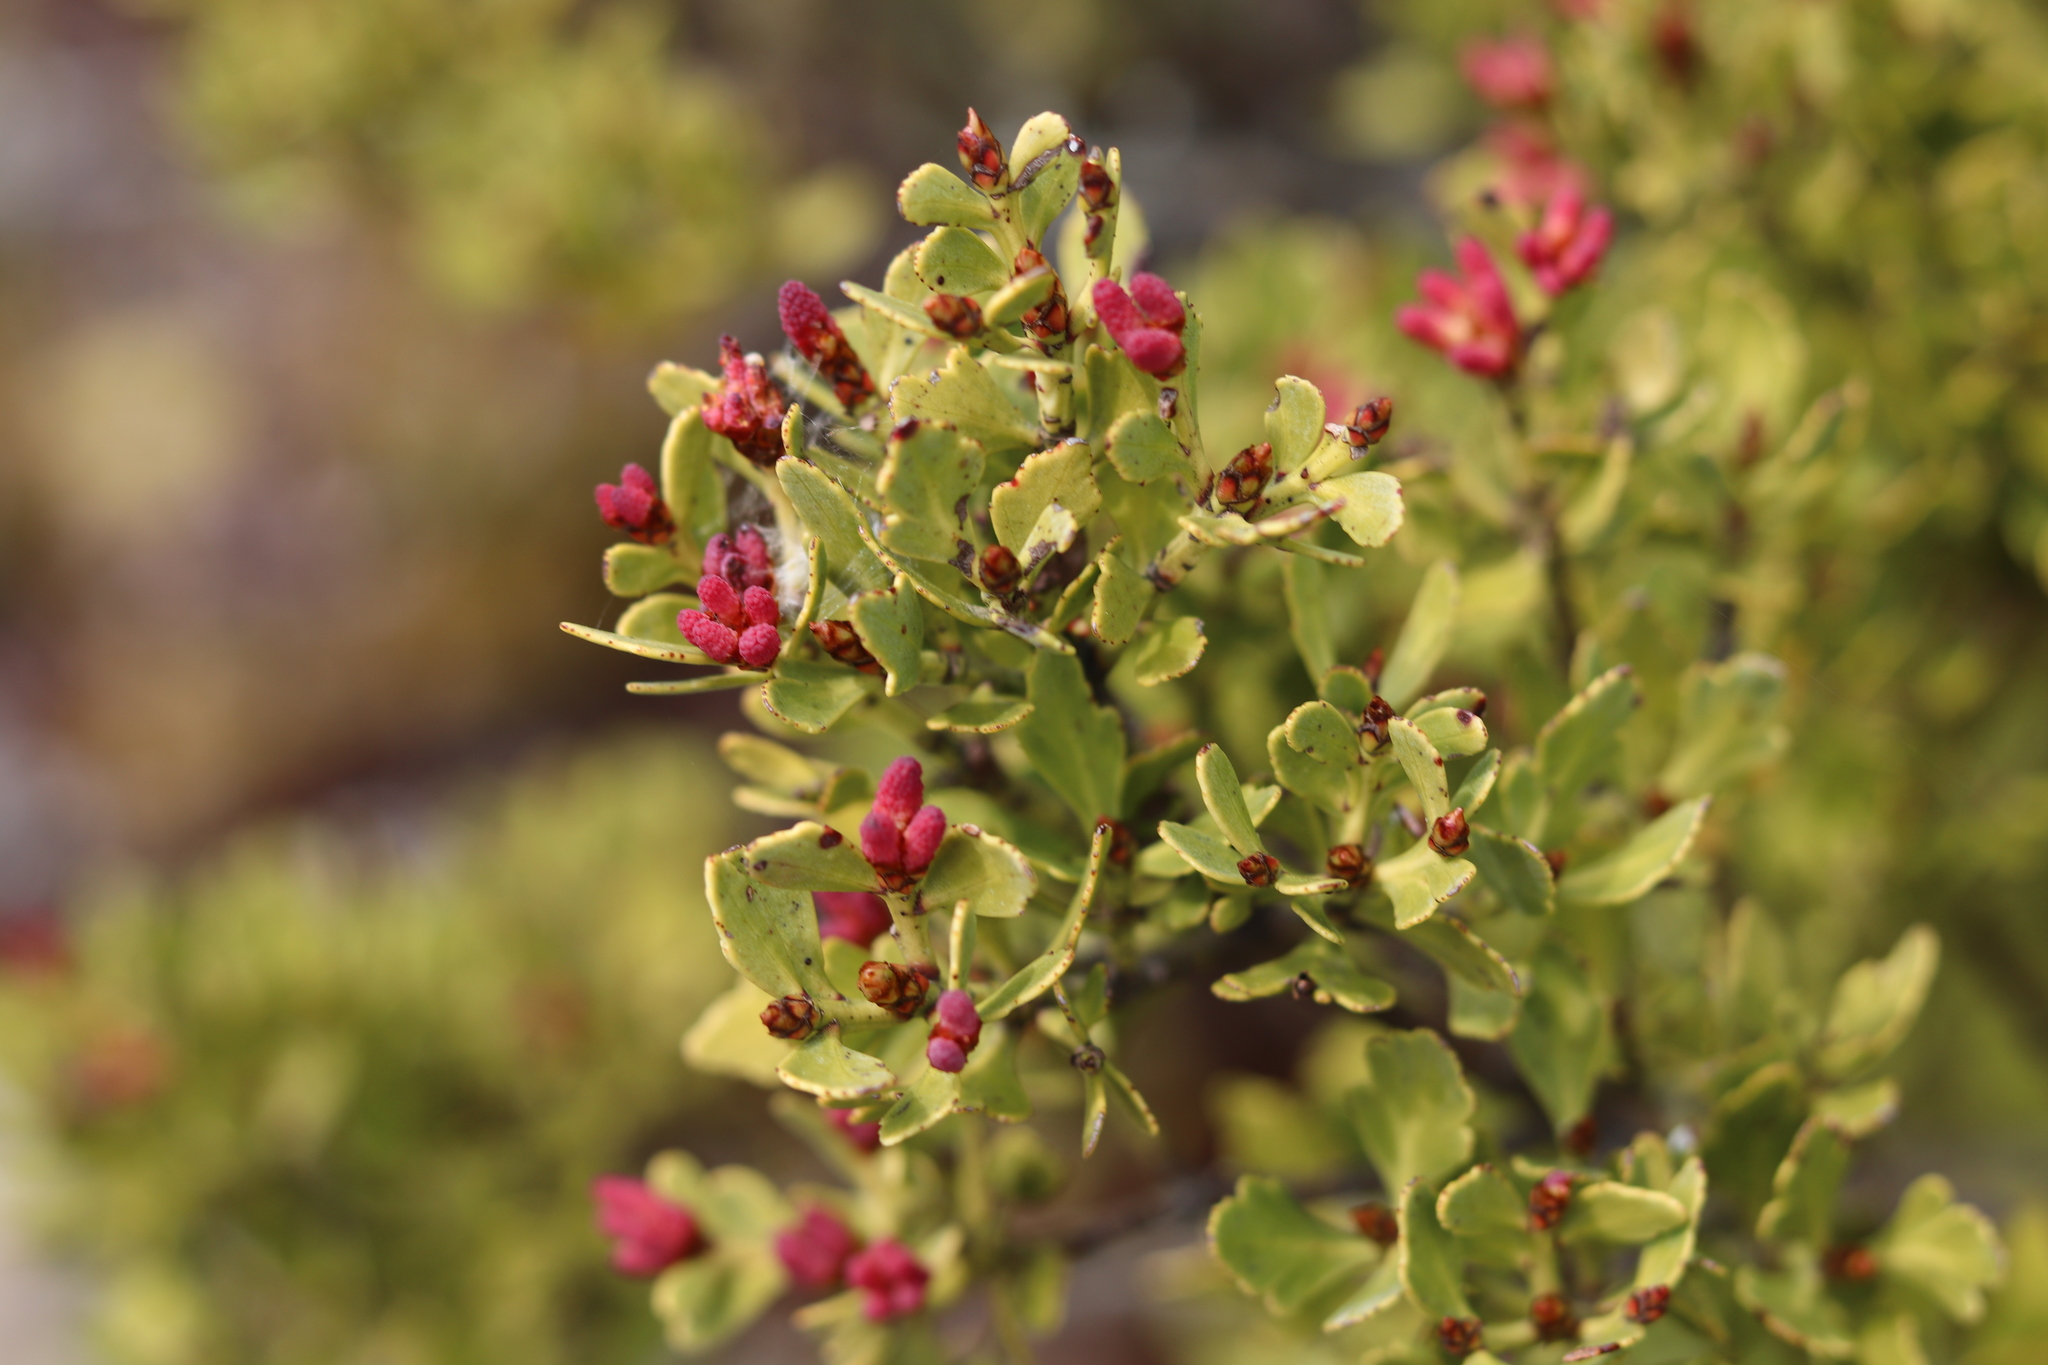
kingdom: Plantae
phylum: Tracheophyta
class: Pinopsida
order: Pinales
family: Phyllocladaceae
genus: Phyllocladus
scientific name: Phyllocladus trichomanoides
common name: Celery pine
